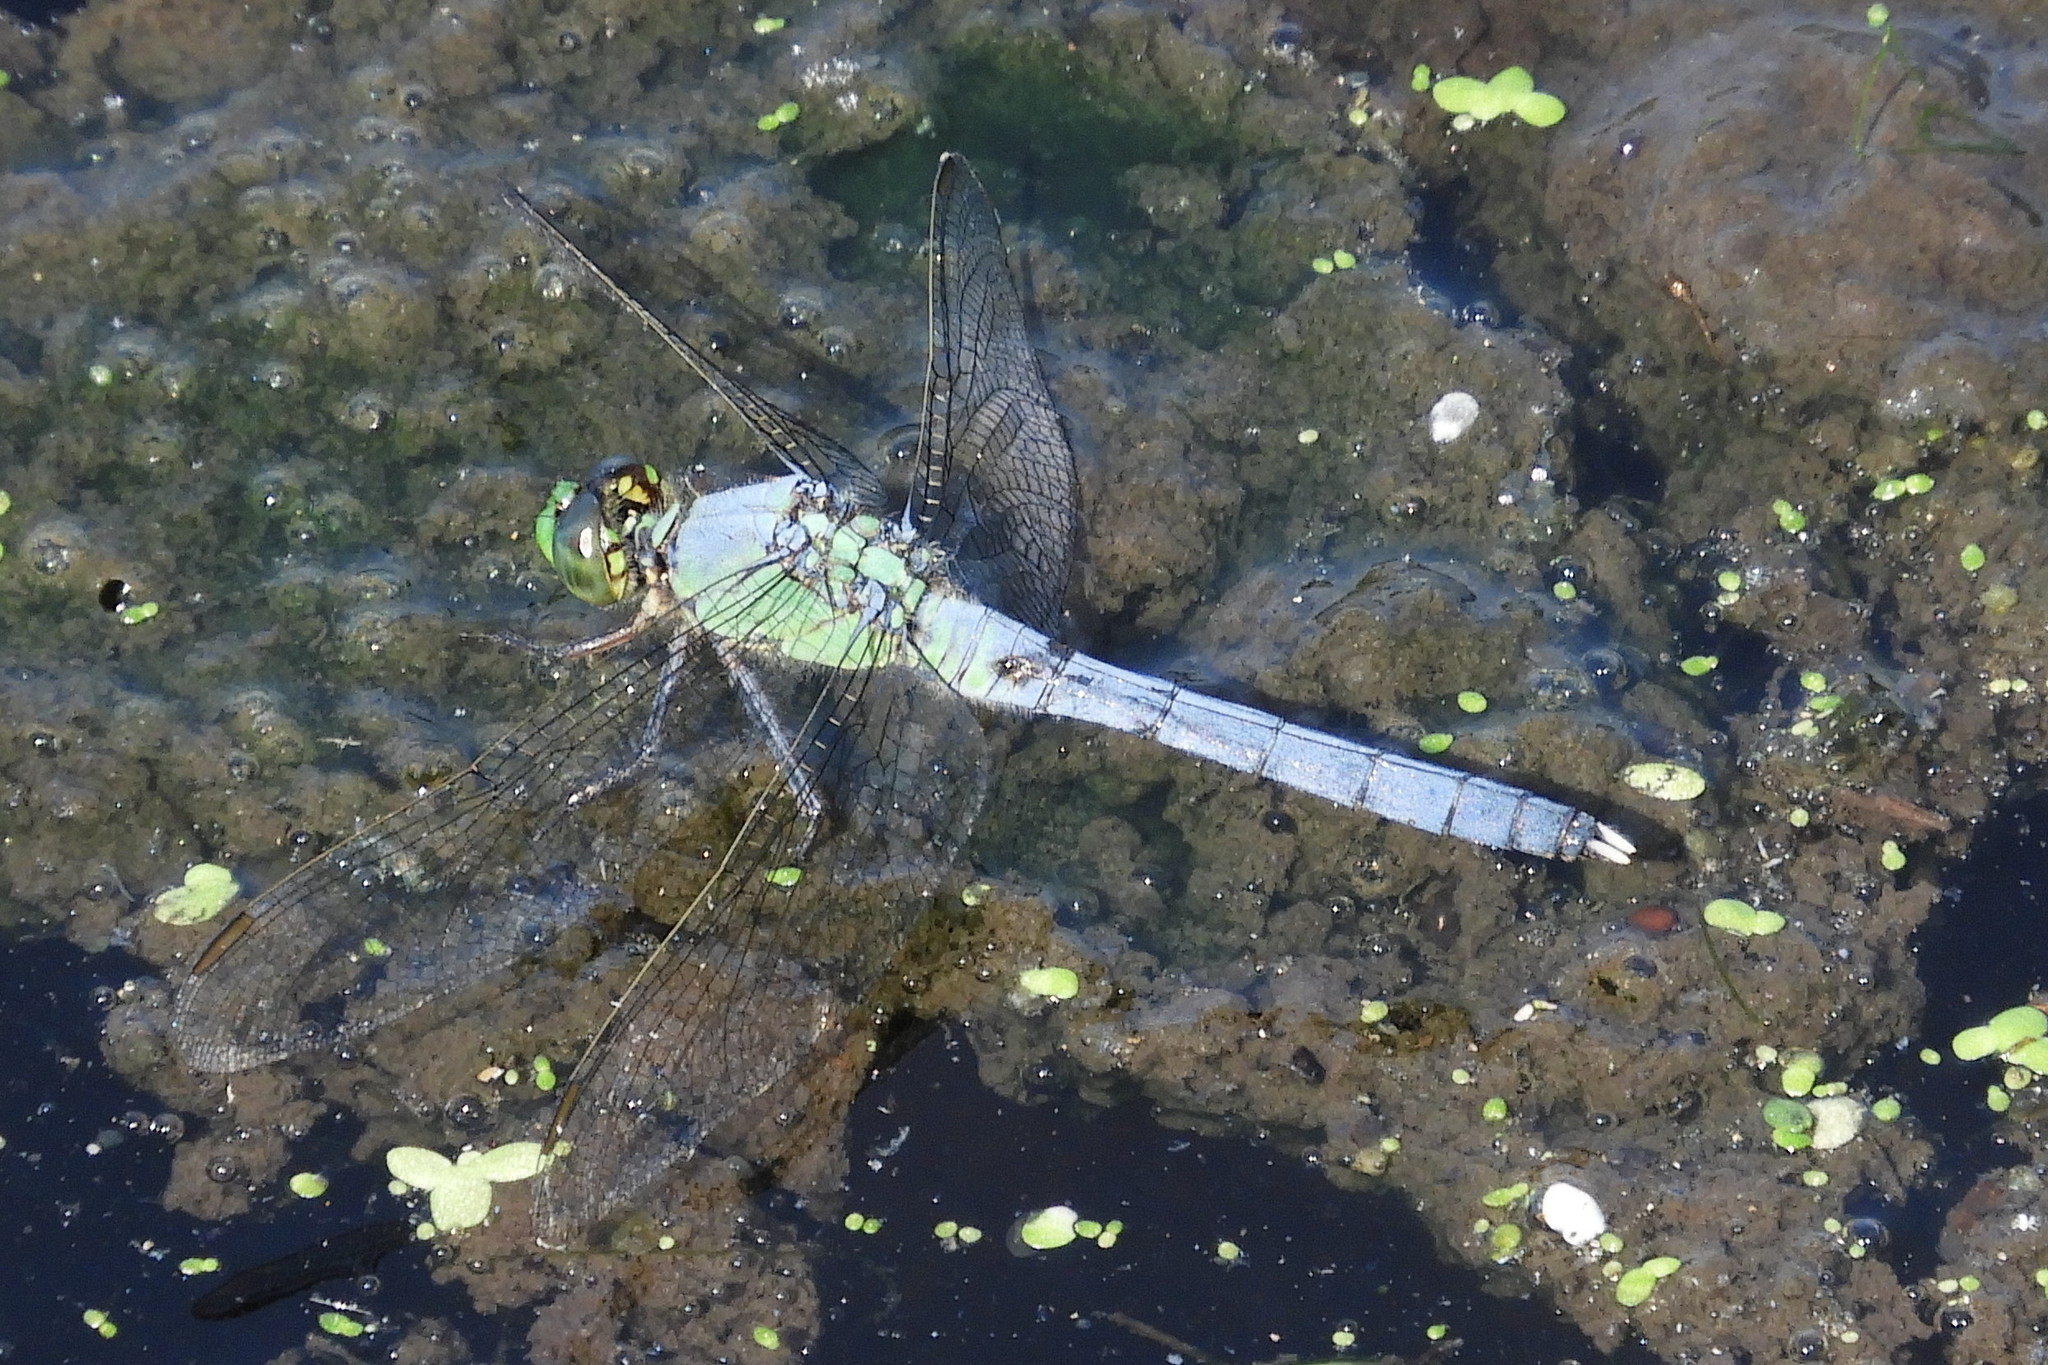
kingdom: Animalia
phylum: Arthropoda
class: Insecta
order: Odonata
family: Libellulidae
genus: Erythemis
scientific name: Erythemis simplicicollis
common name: Eastern pondhawk
